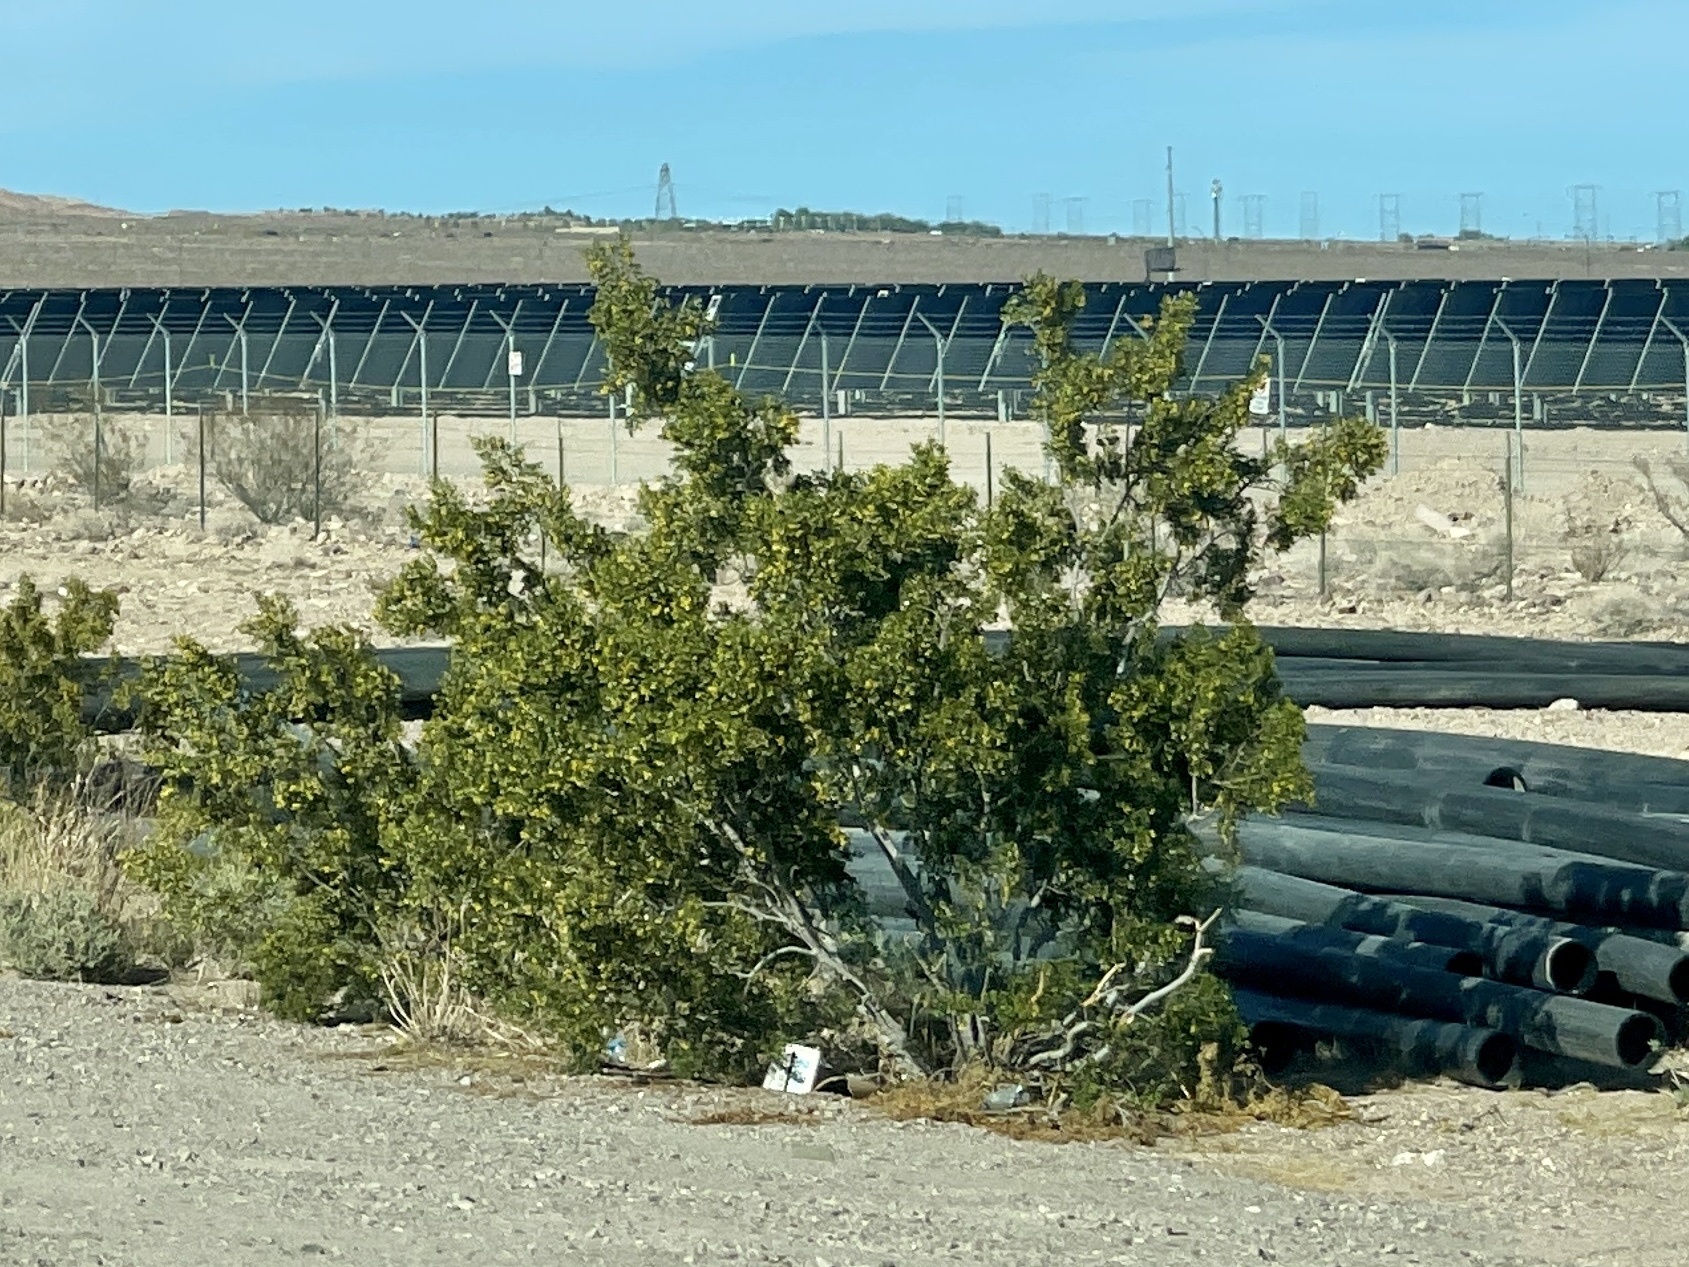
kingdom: Plantae
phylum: Tracheophyta
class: Magnoliopsida
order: Zygophyllales
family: Zygophyllaceae
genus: Larrea
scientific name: Larrea tridentata
